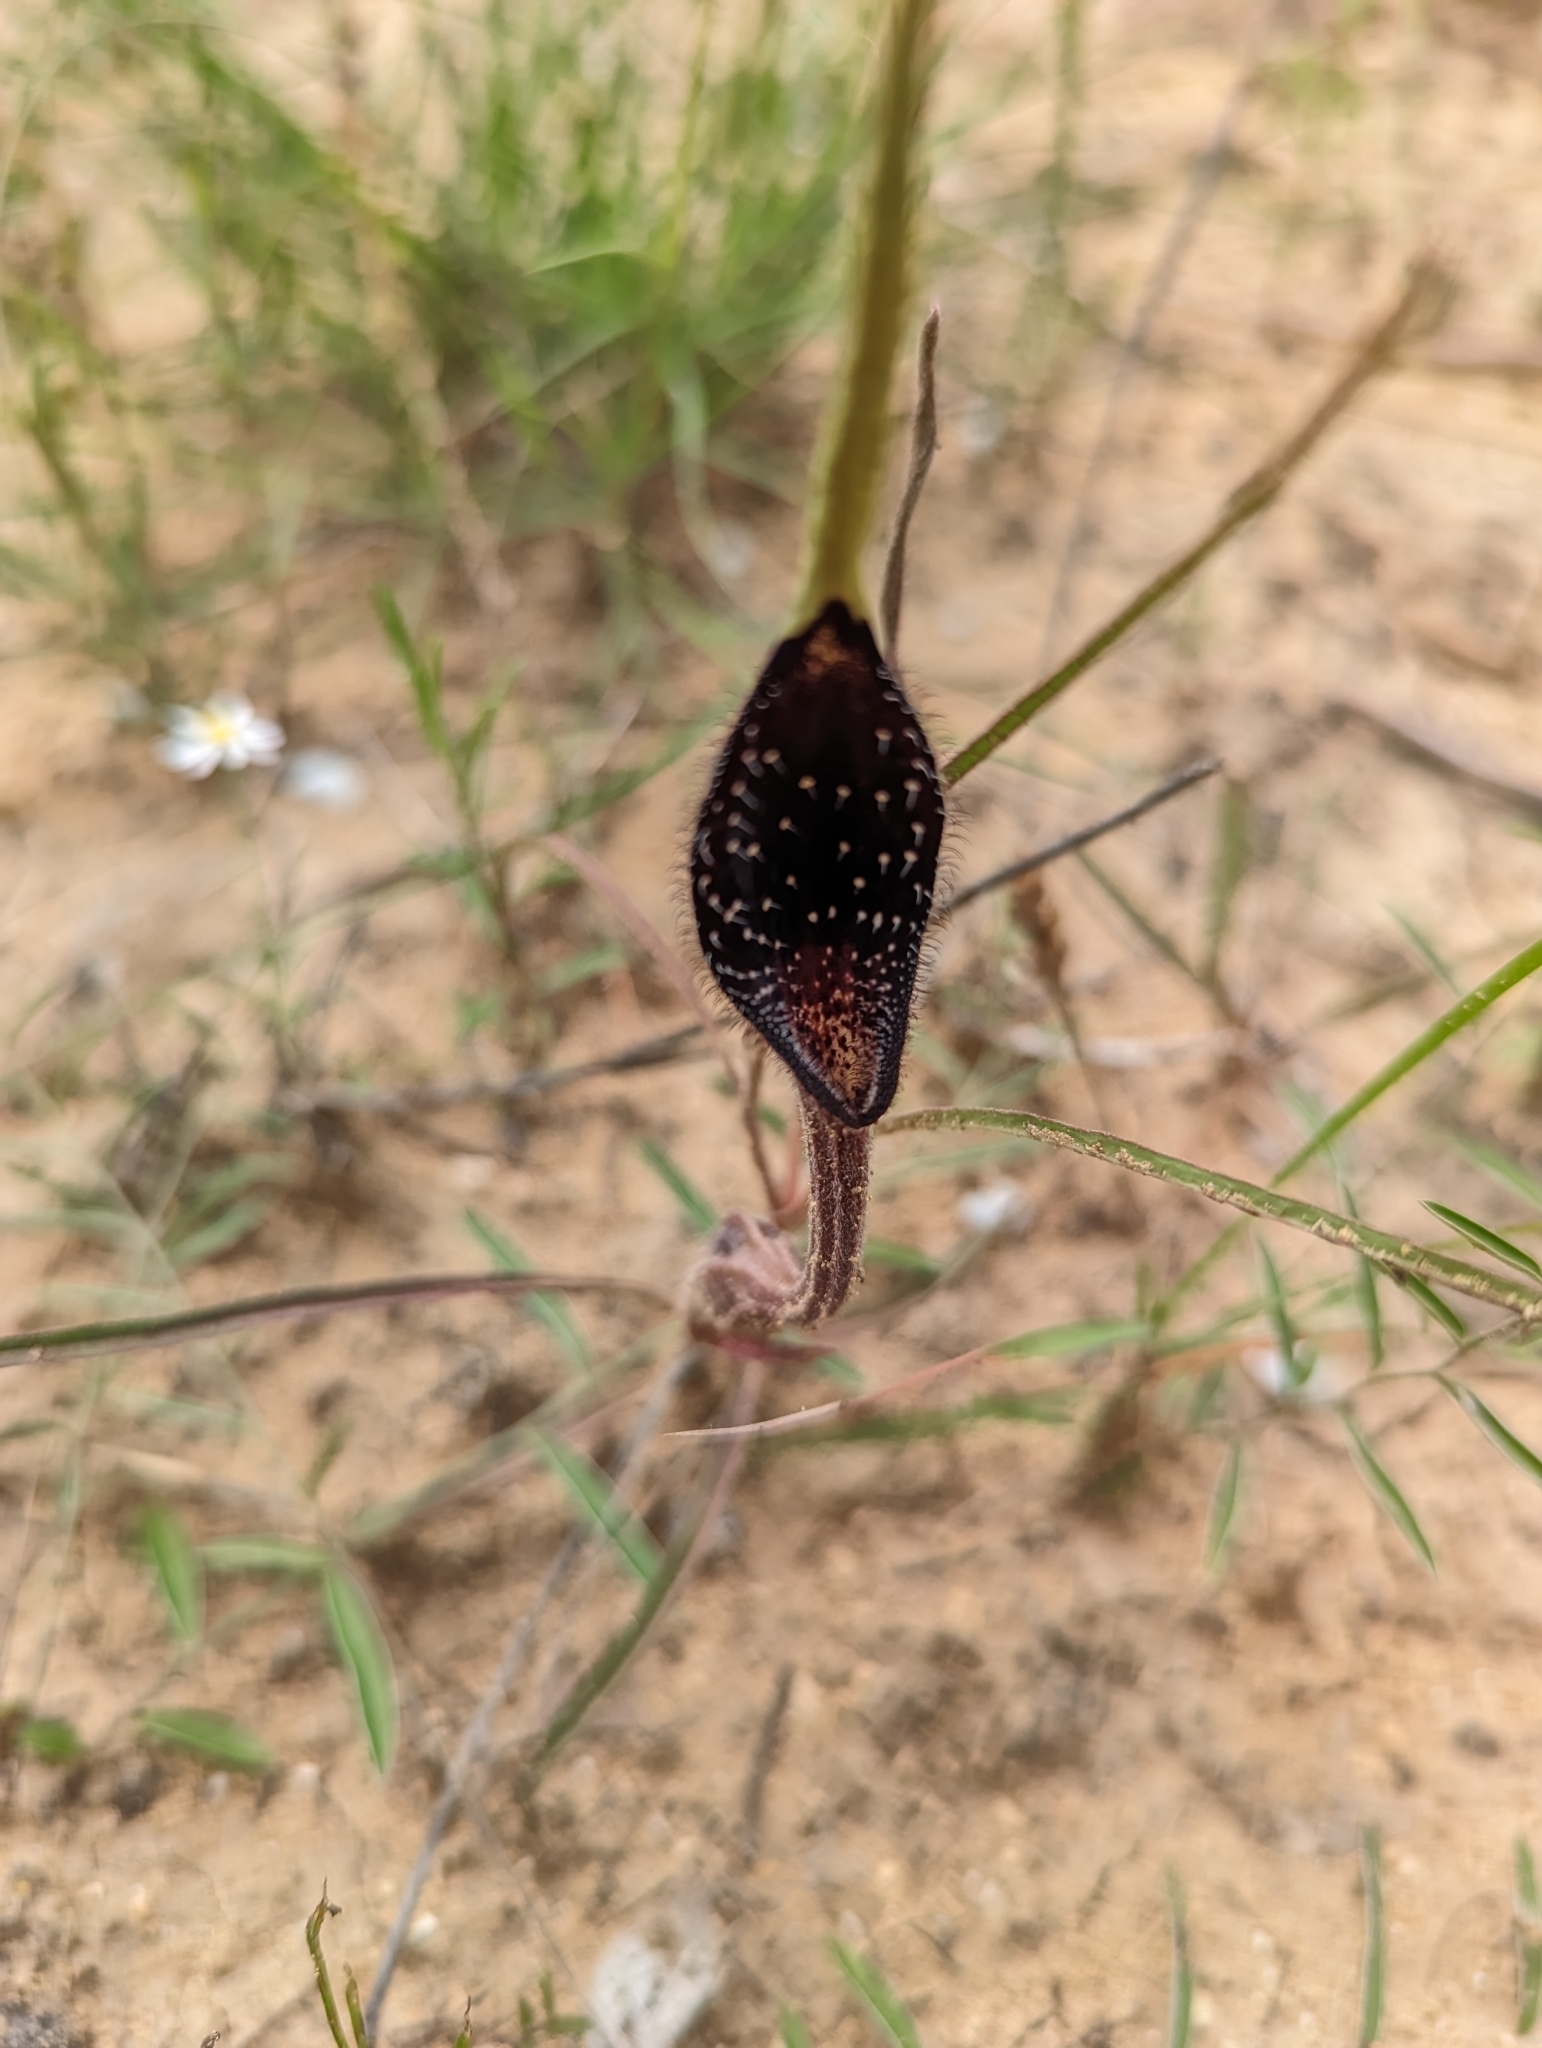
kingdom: Plantae
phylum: Tracheophyta
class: Magnoliopsida
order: Piperales
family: Aristolochiaceae
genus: Aristolochia
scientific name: Aristolochia erecta
